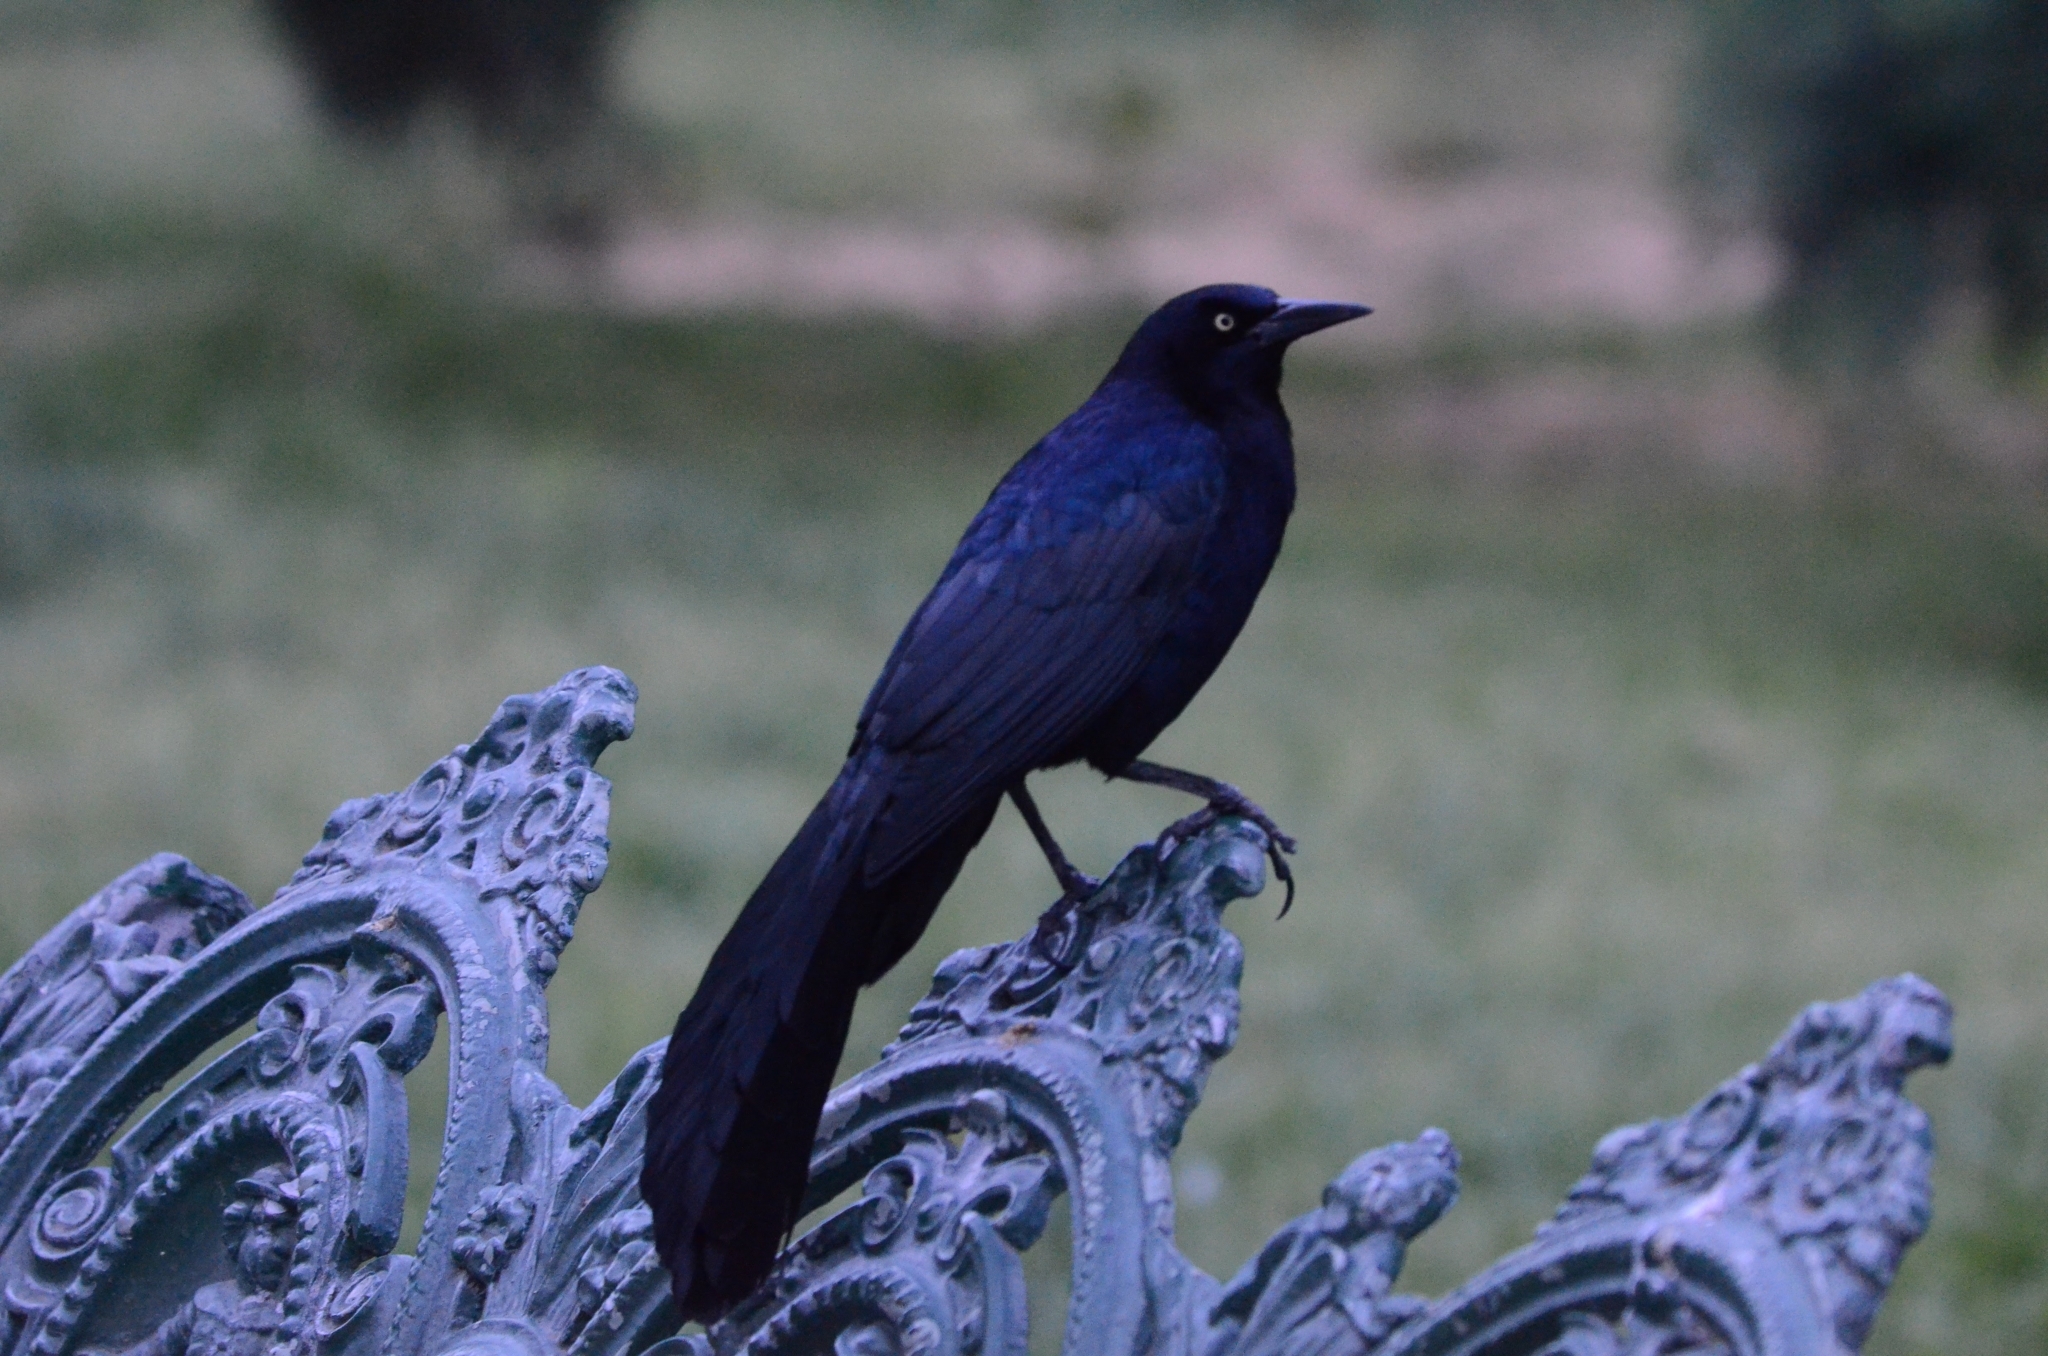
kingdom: Animalia
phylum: Chordata
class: Aves
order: Passeriformes
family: Icteridae
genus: Quiscalus
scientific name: Quiscalus mexicanus
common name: Great-tailed grackle
